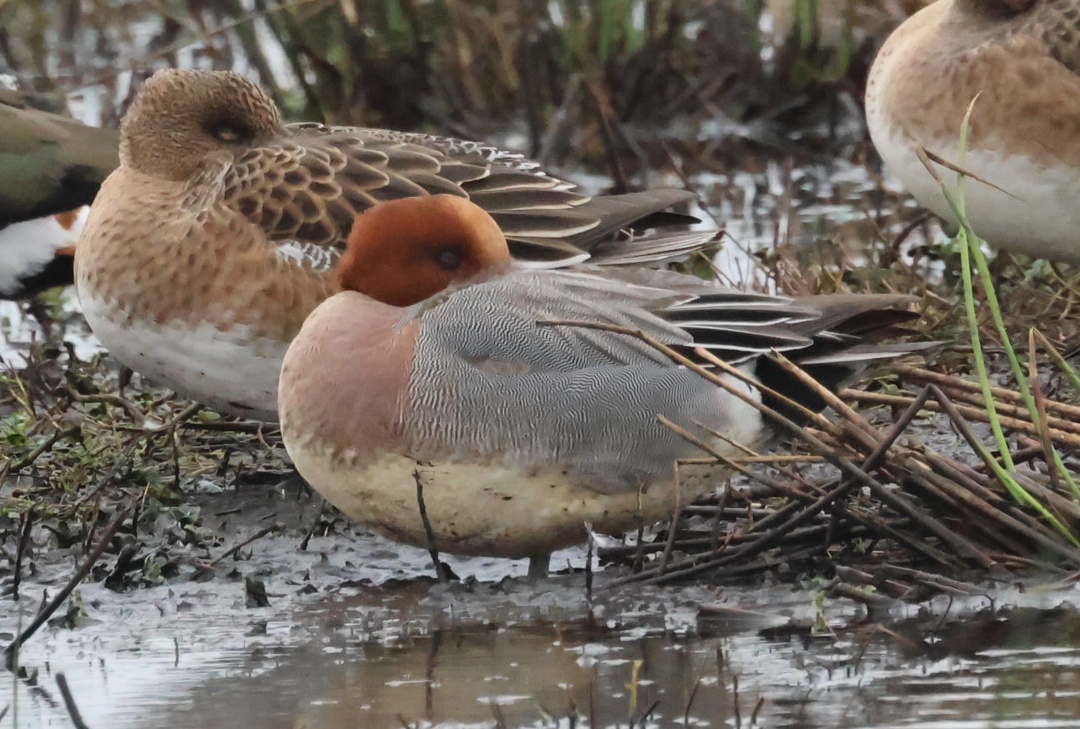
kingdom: Animalia
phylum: Chordata
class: Aves
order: Anseriformes
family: Anatidae
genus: Mareca
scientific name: Mareca penelope
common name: Eurasian wigeon
